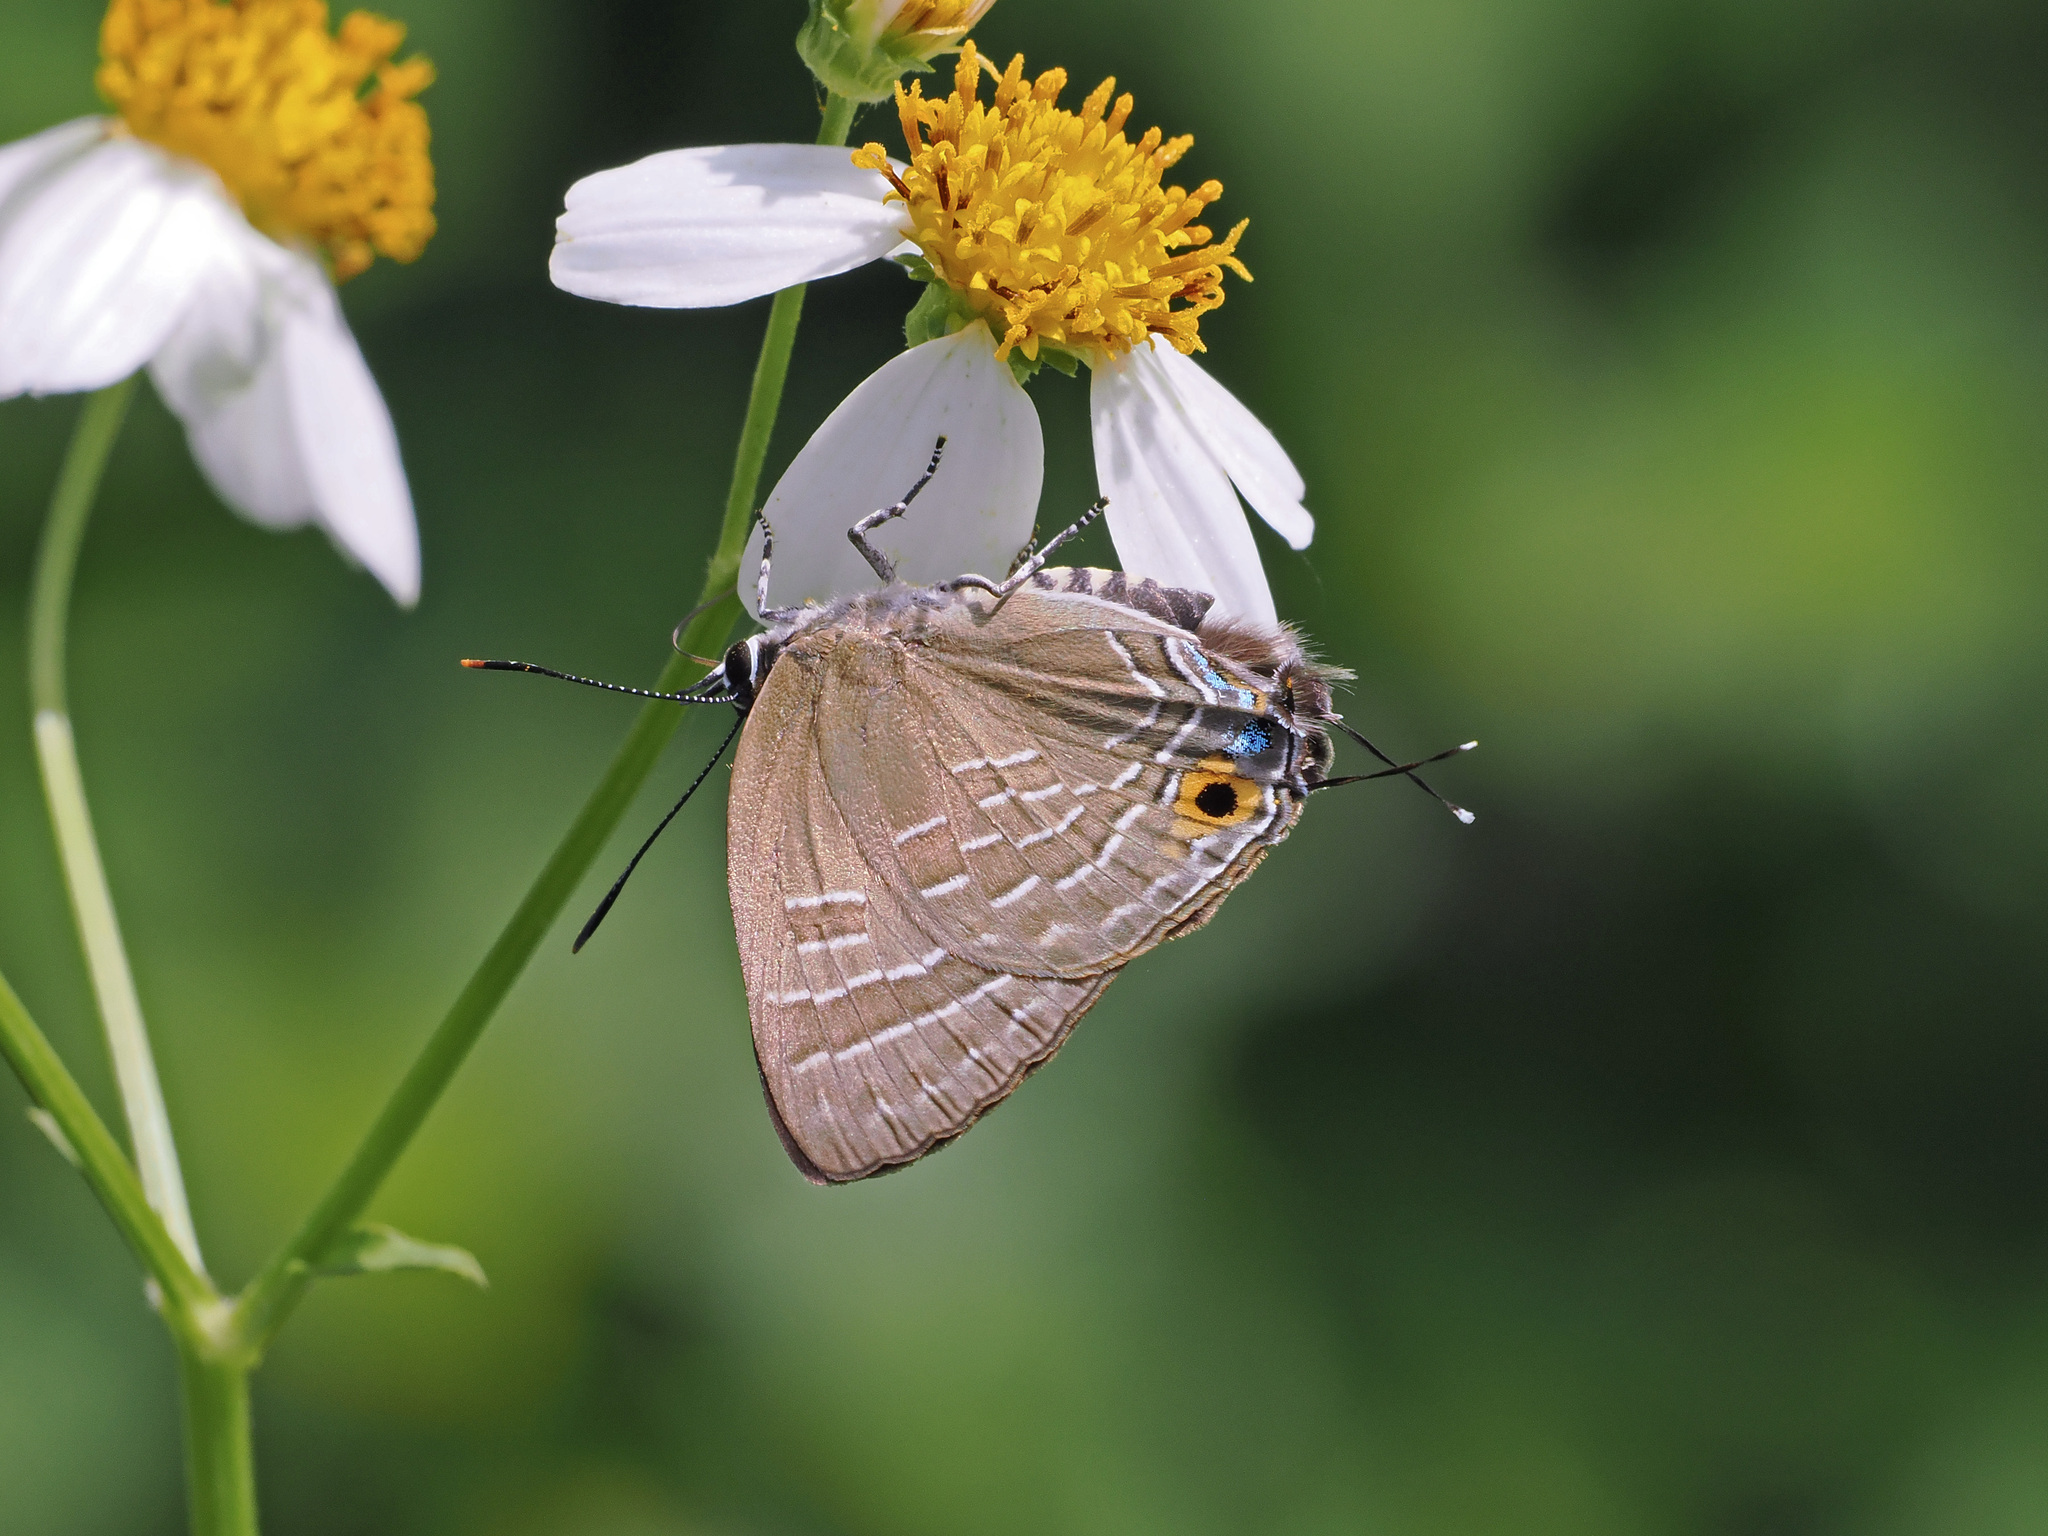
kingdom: Animalia
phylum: Arthropoda
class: Insecta
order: Lepidoptera
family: Lycaenidae
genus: Deudorix
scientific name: Deudorix epijarbas
